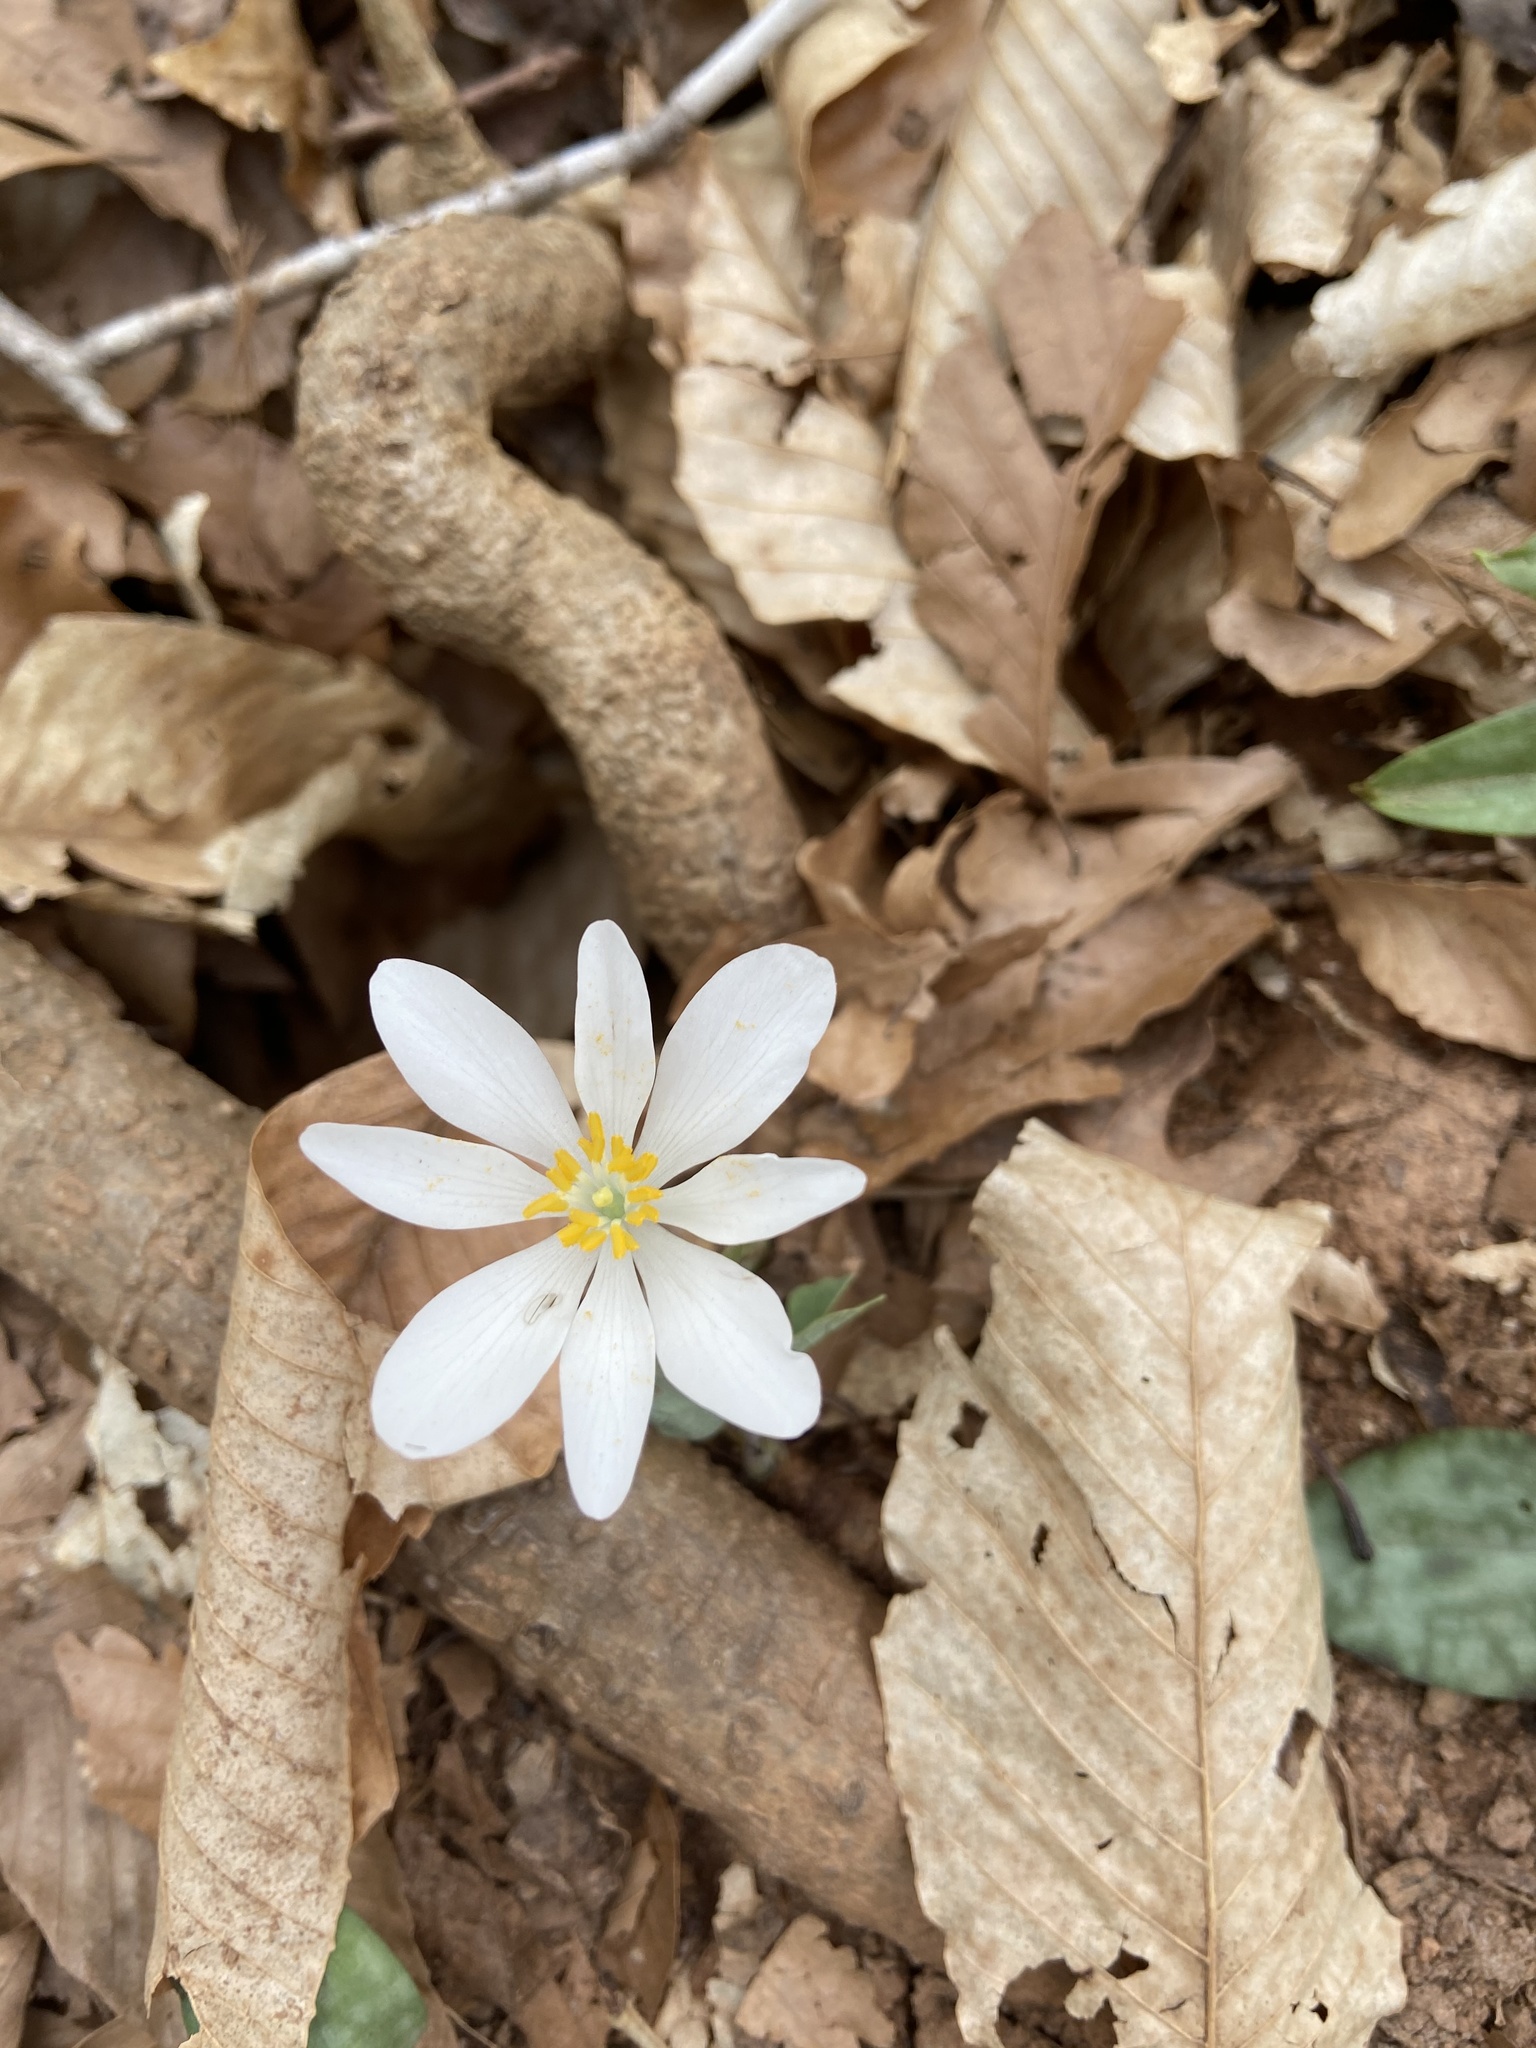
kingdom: Plantae
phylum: Tracheophyta
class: Magnoliopsida
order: Ranunculales
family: Papaveraceae
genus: Sanguinaria
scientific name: Sanguinaria canadensis
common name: Bloodroot
